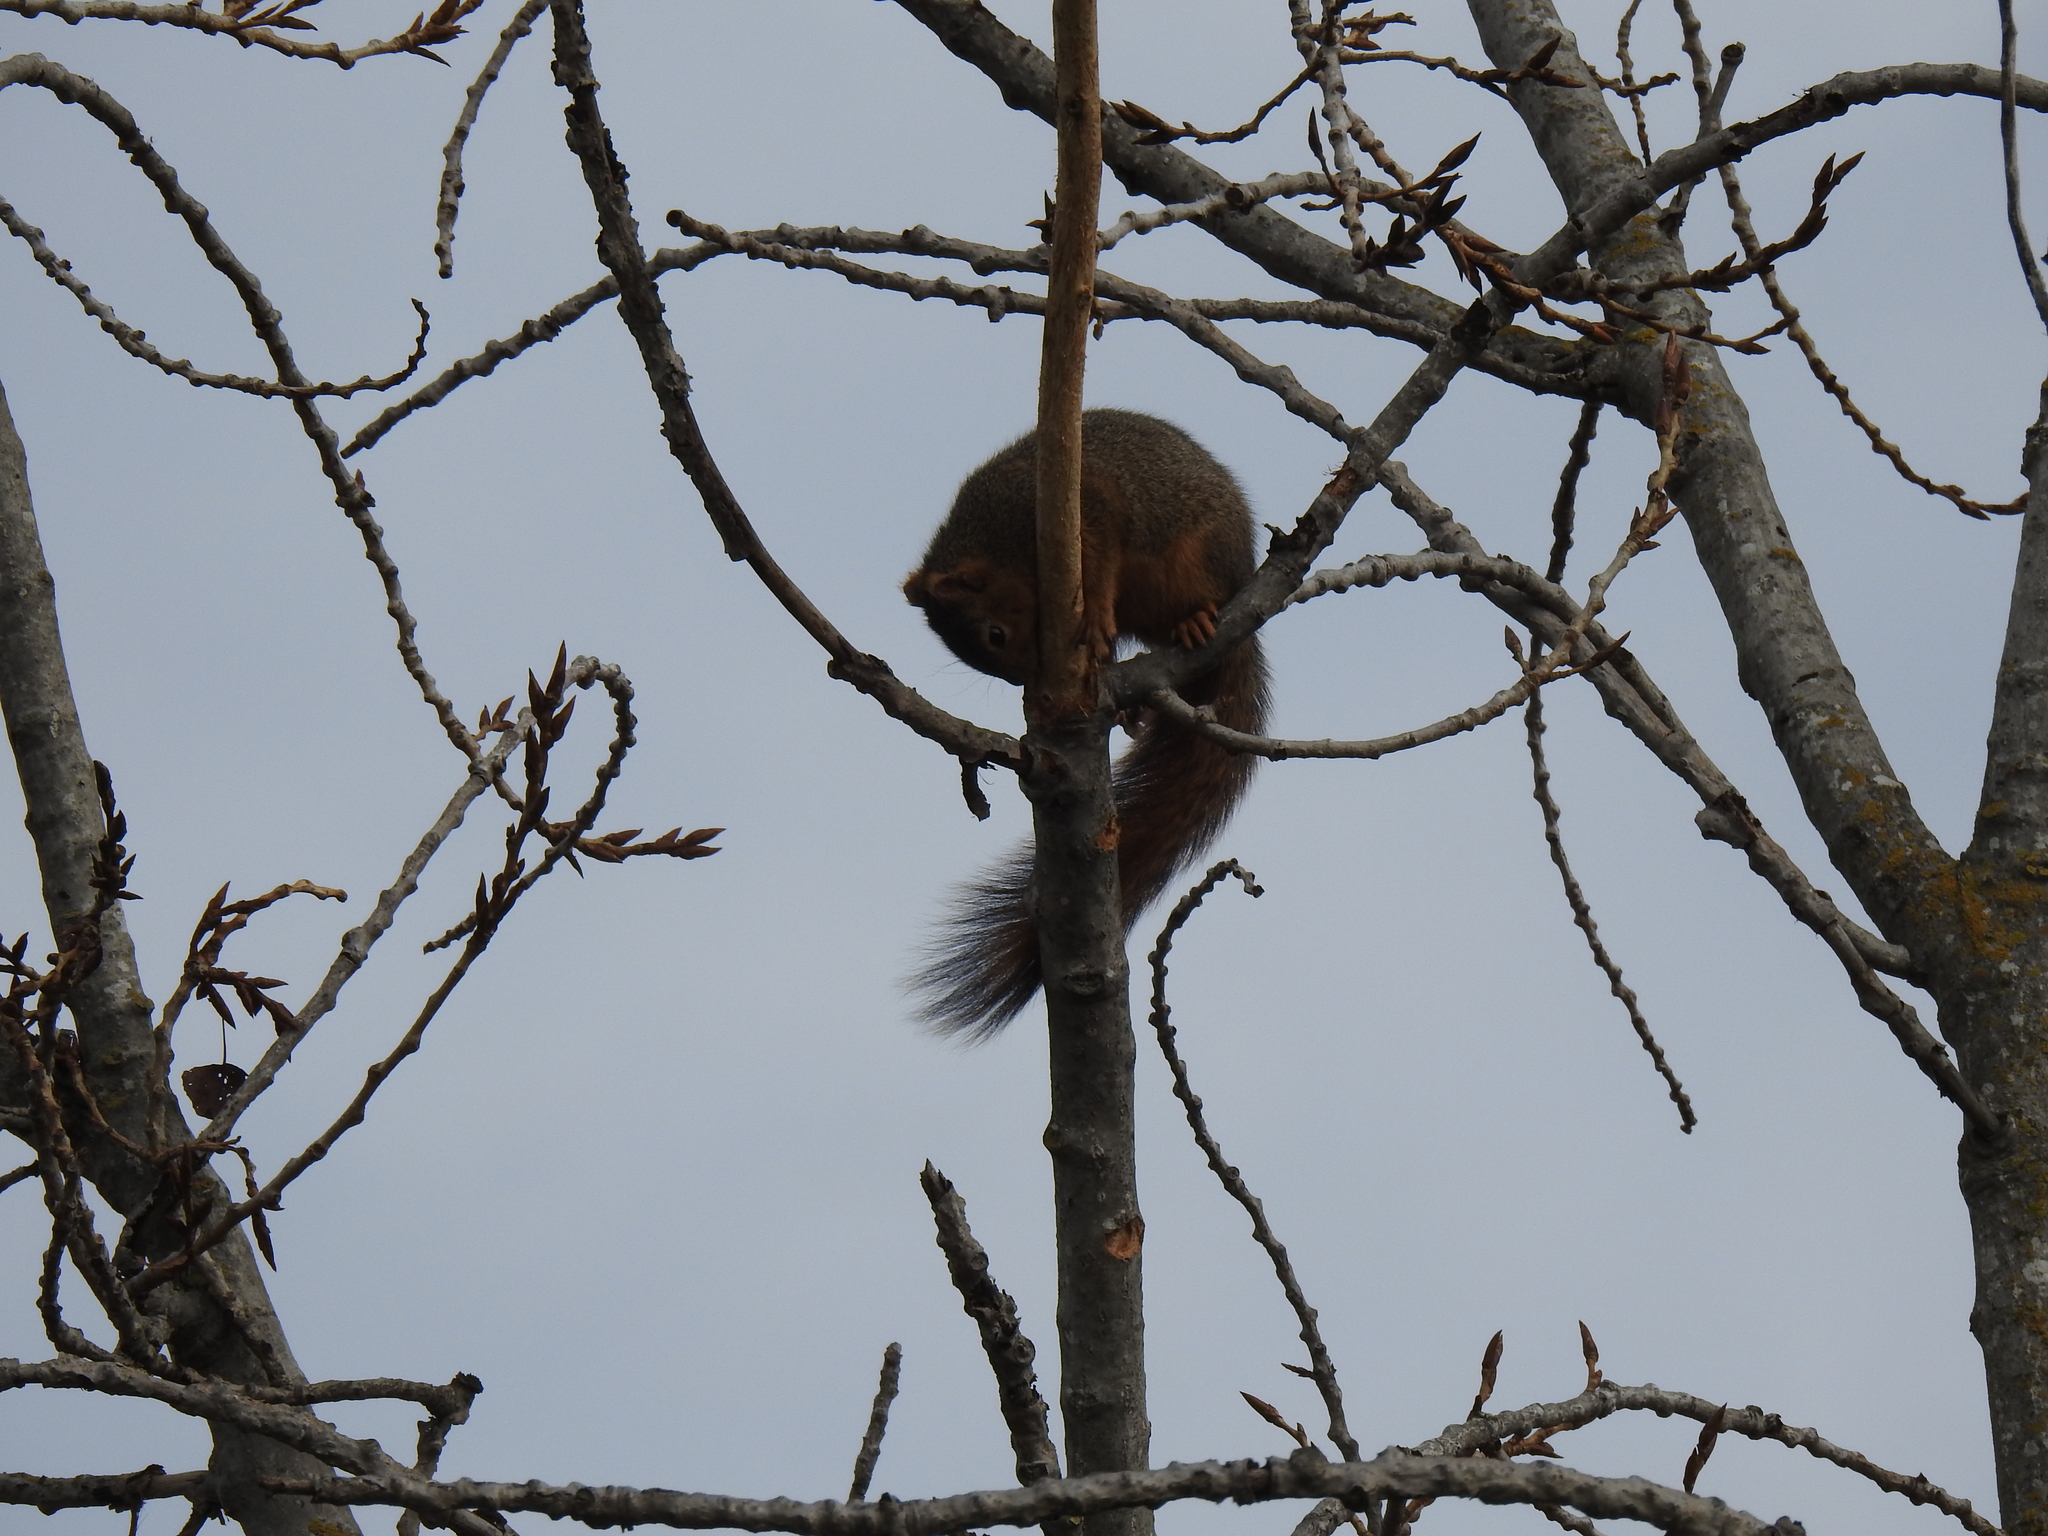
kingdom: Animalia
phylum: Chordata
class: Mammalia
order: Rodentia
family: Sciuridae
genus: Sciurus
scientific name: Sciurus niger
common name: Fox squirrel
